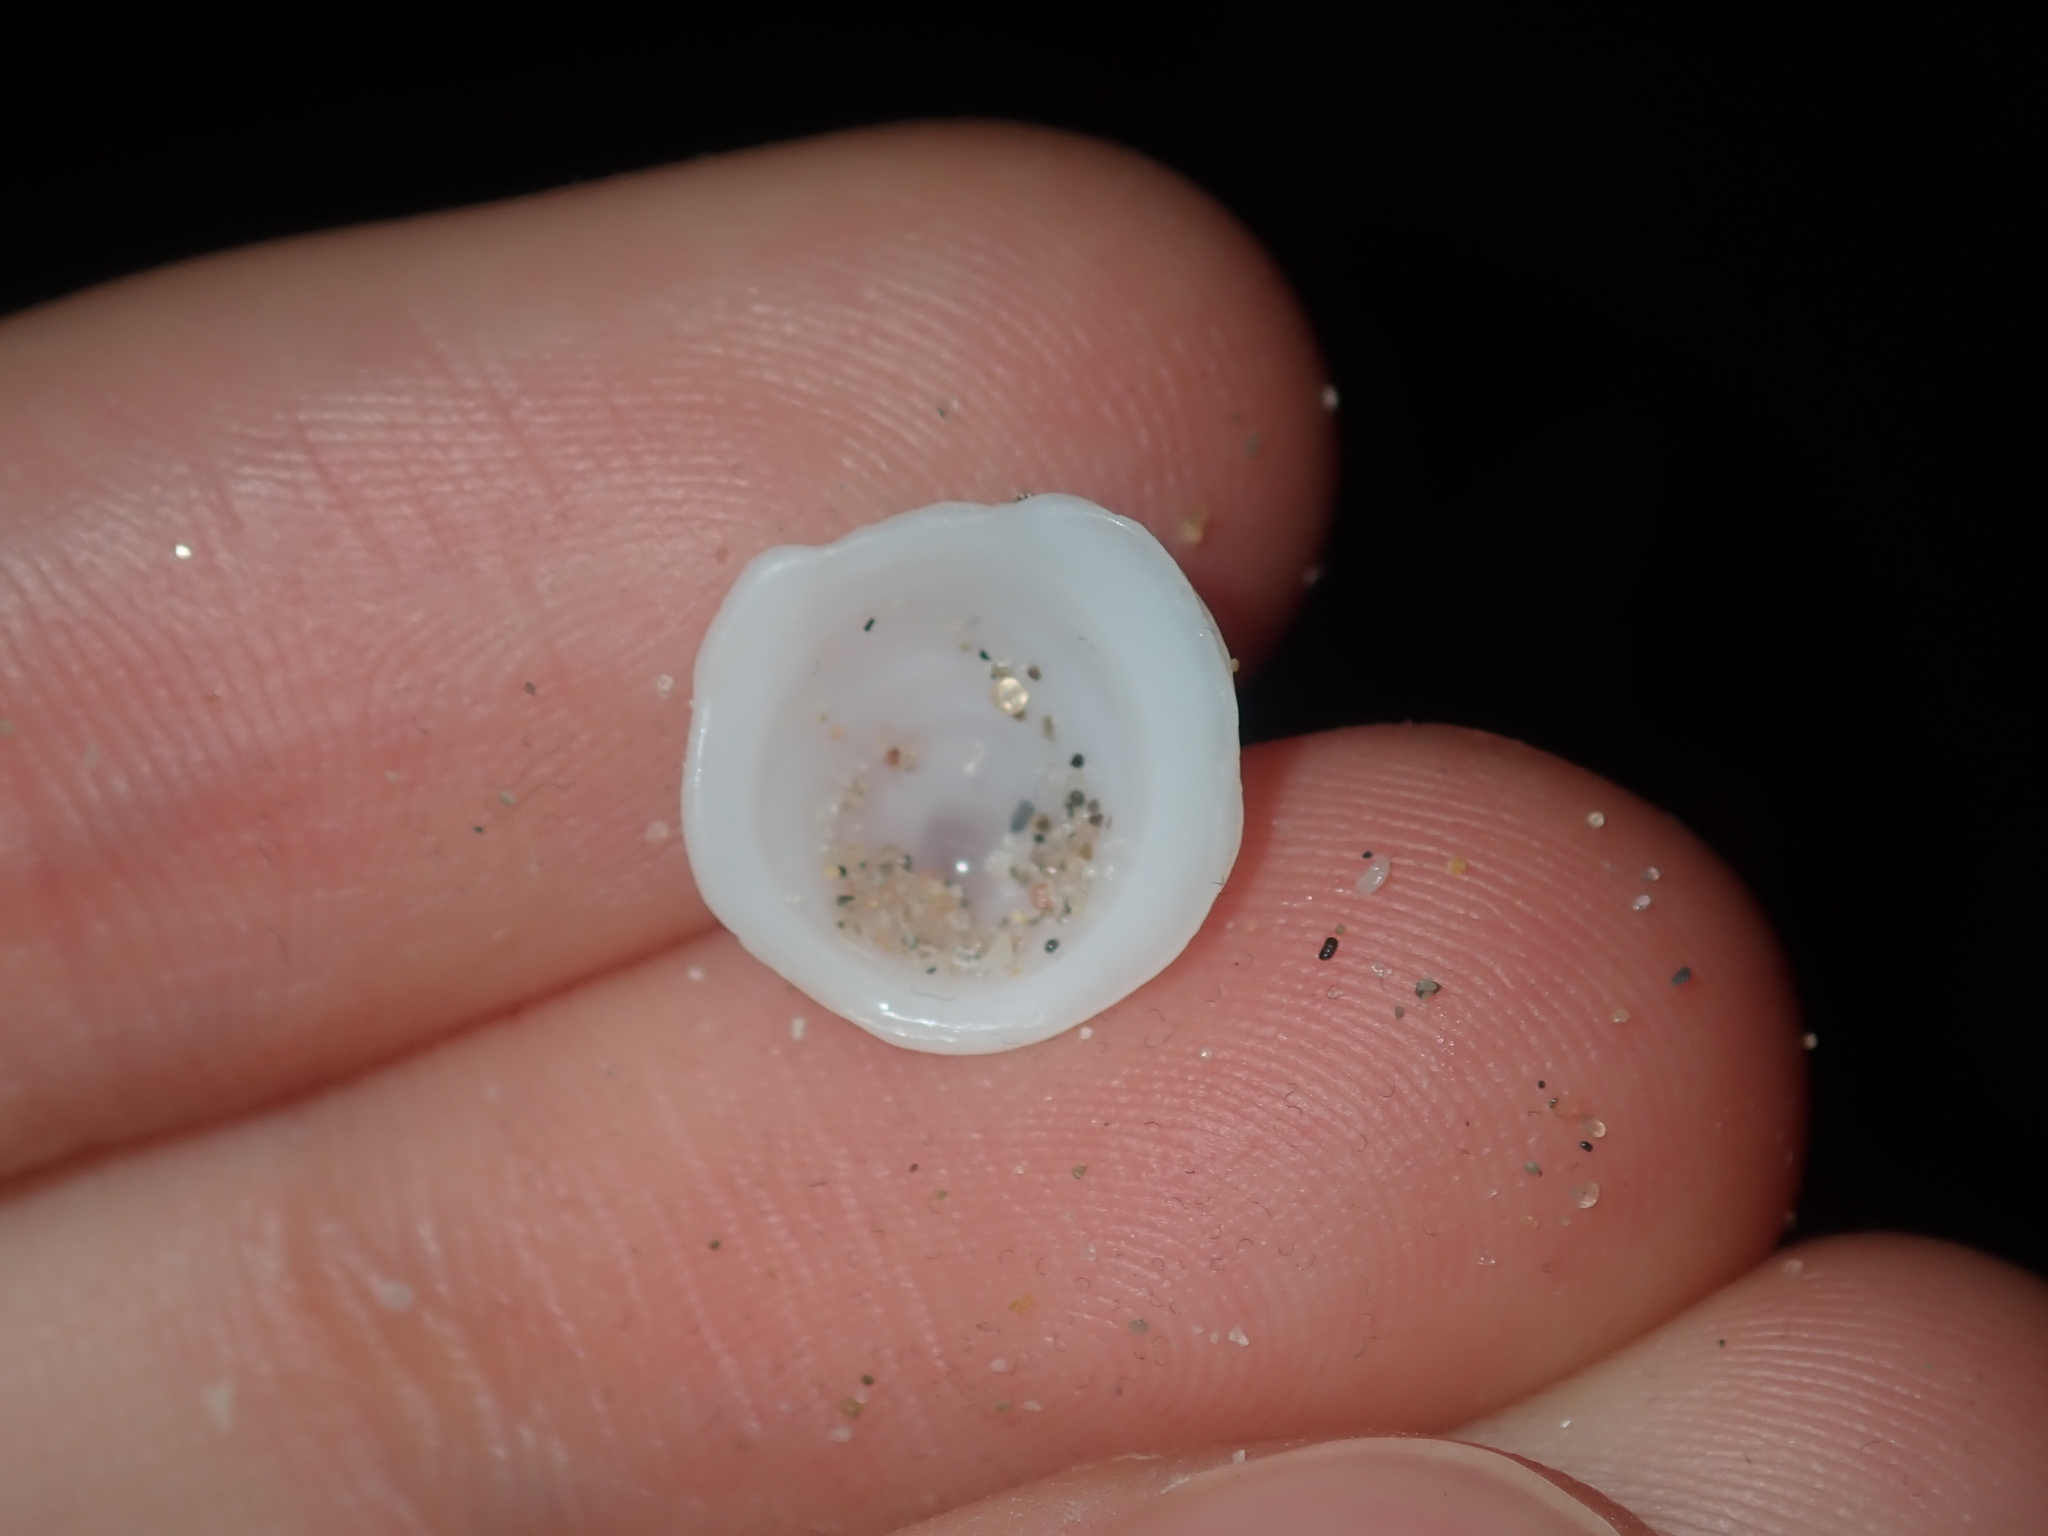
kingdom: Animalia
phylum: Mollusca
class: Gastropoda
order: Littorinimorpha
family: Hipponicidae
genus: Antisabia
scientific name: Antisabia foliacea
